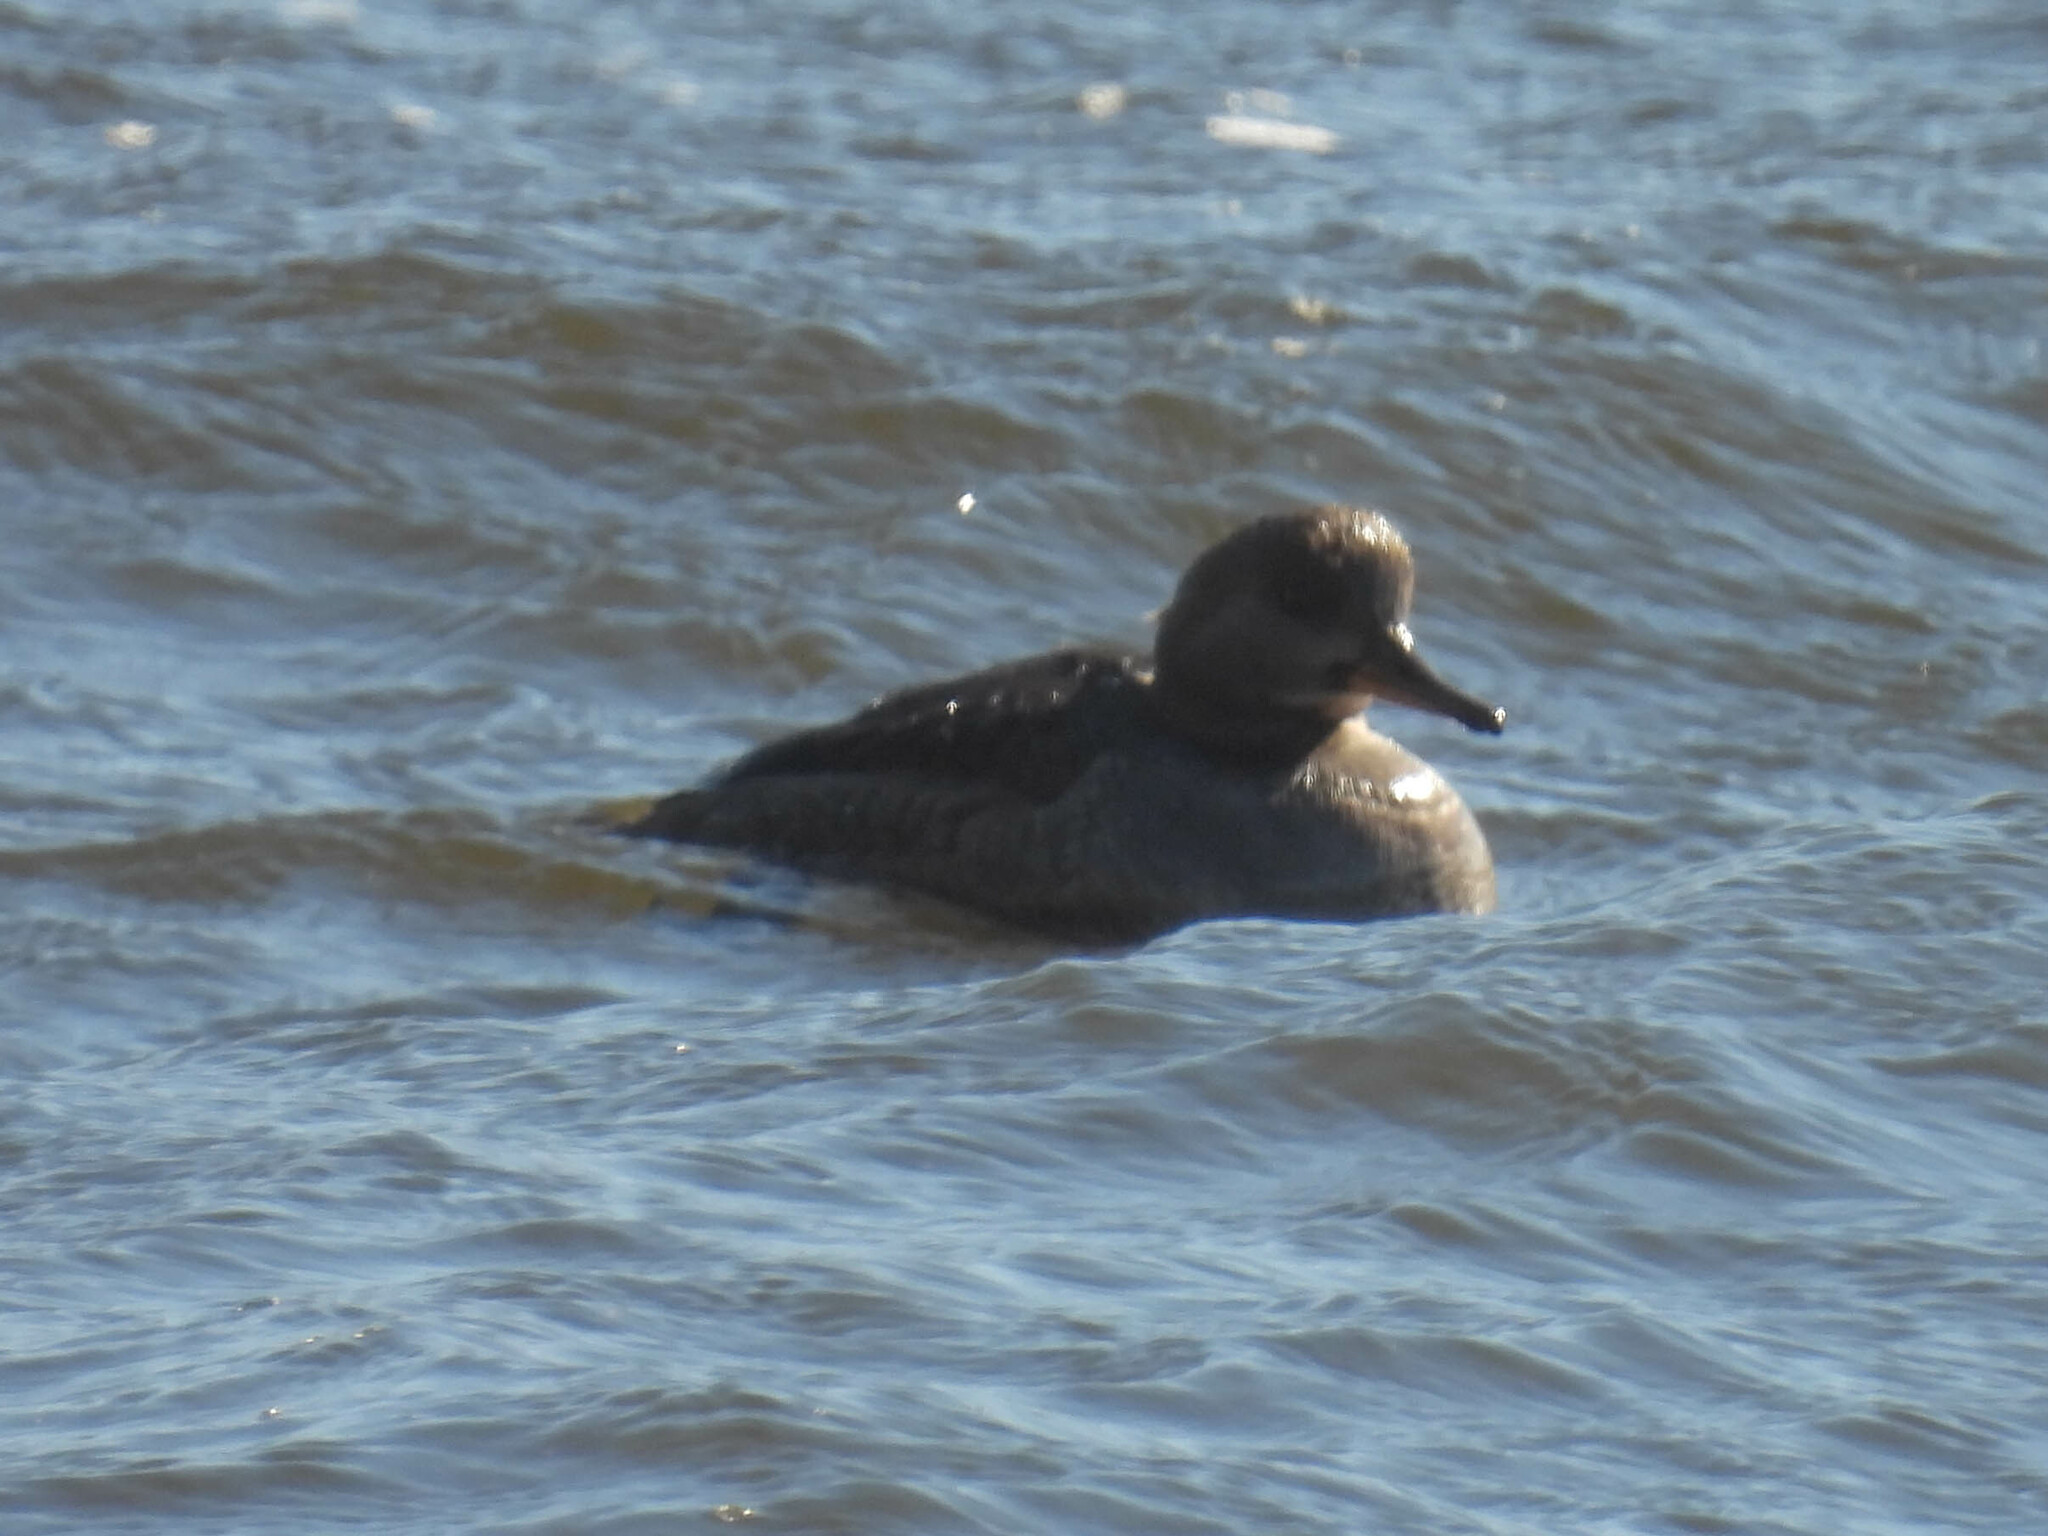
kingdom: Animalia
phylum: Chordata
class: Aves
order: Anseriformes
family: Anatidae
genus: Lophodytes
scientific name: Lophodytes cucullatus
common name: Hooded merganser
